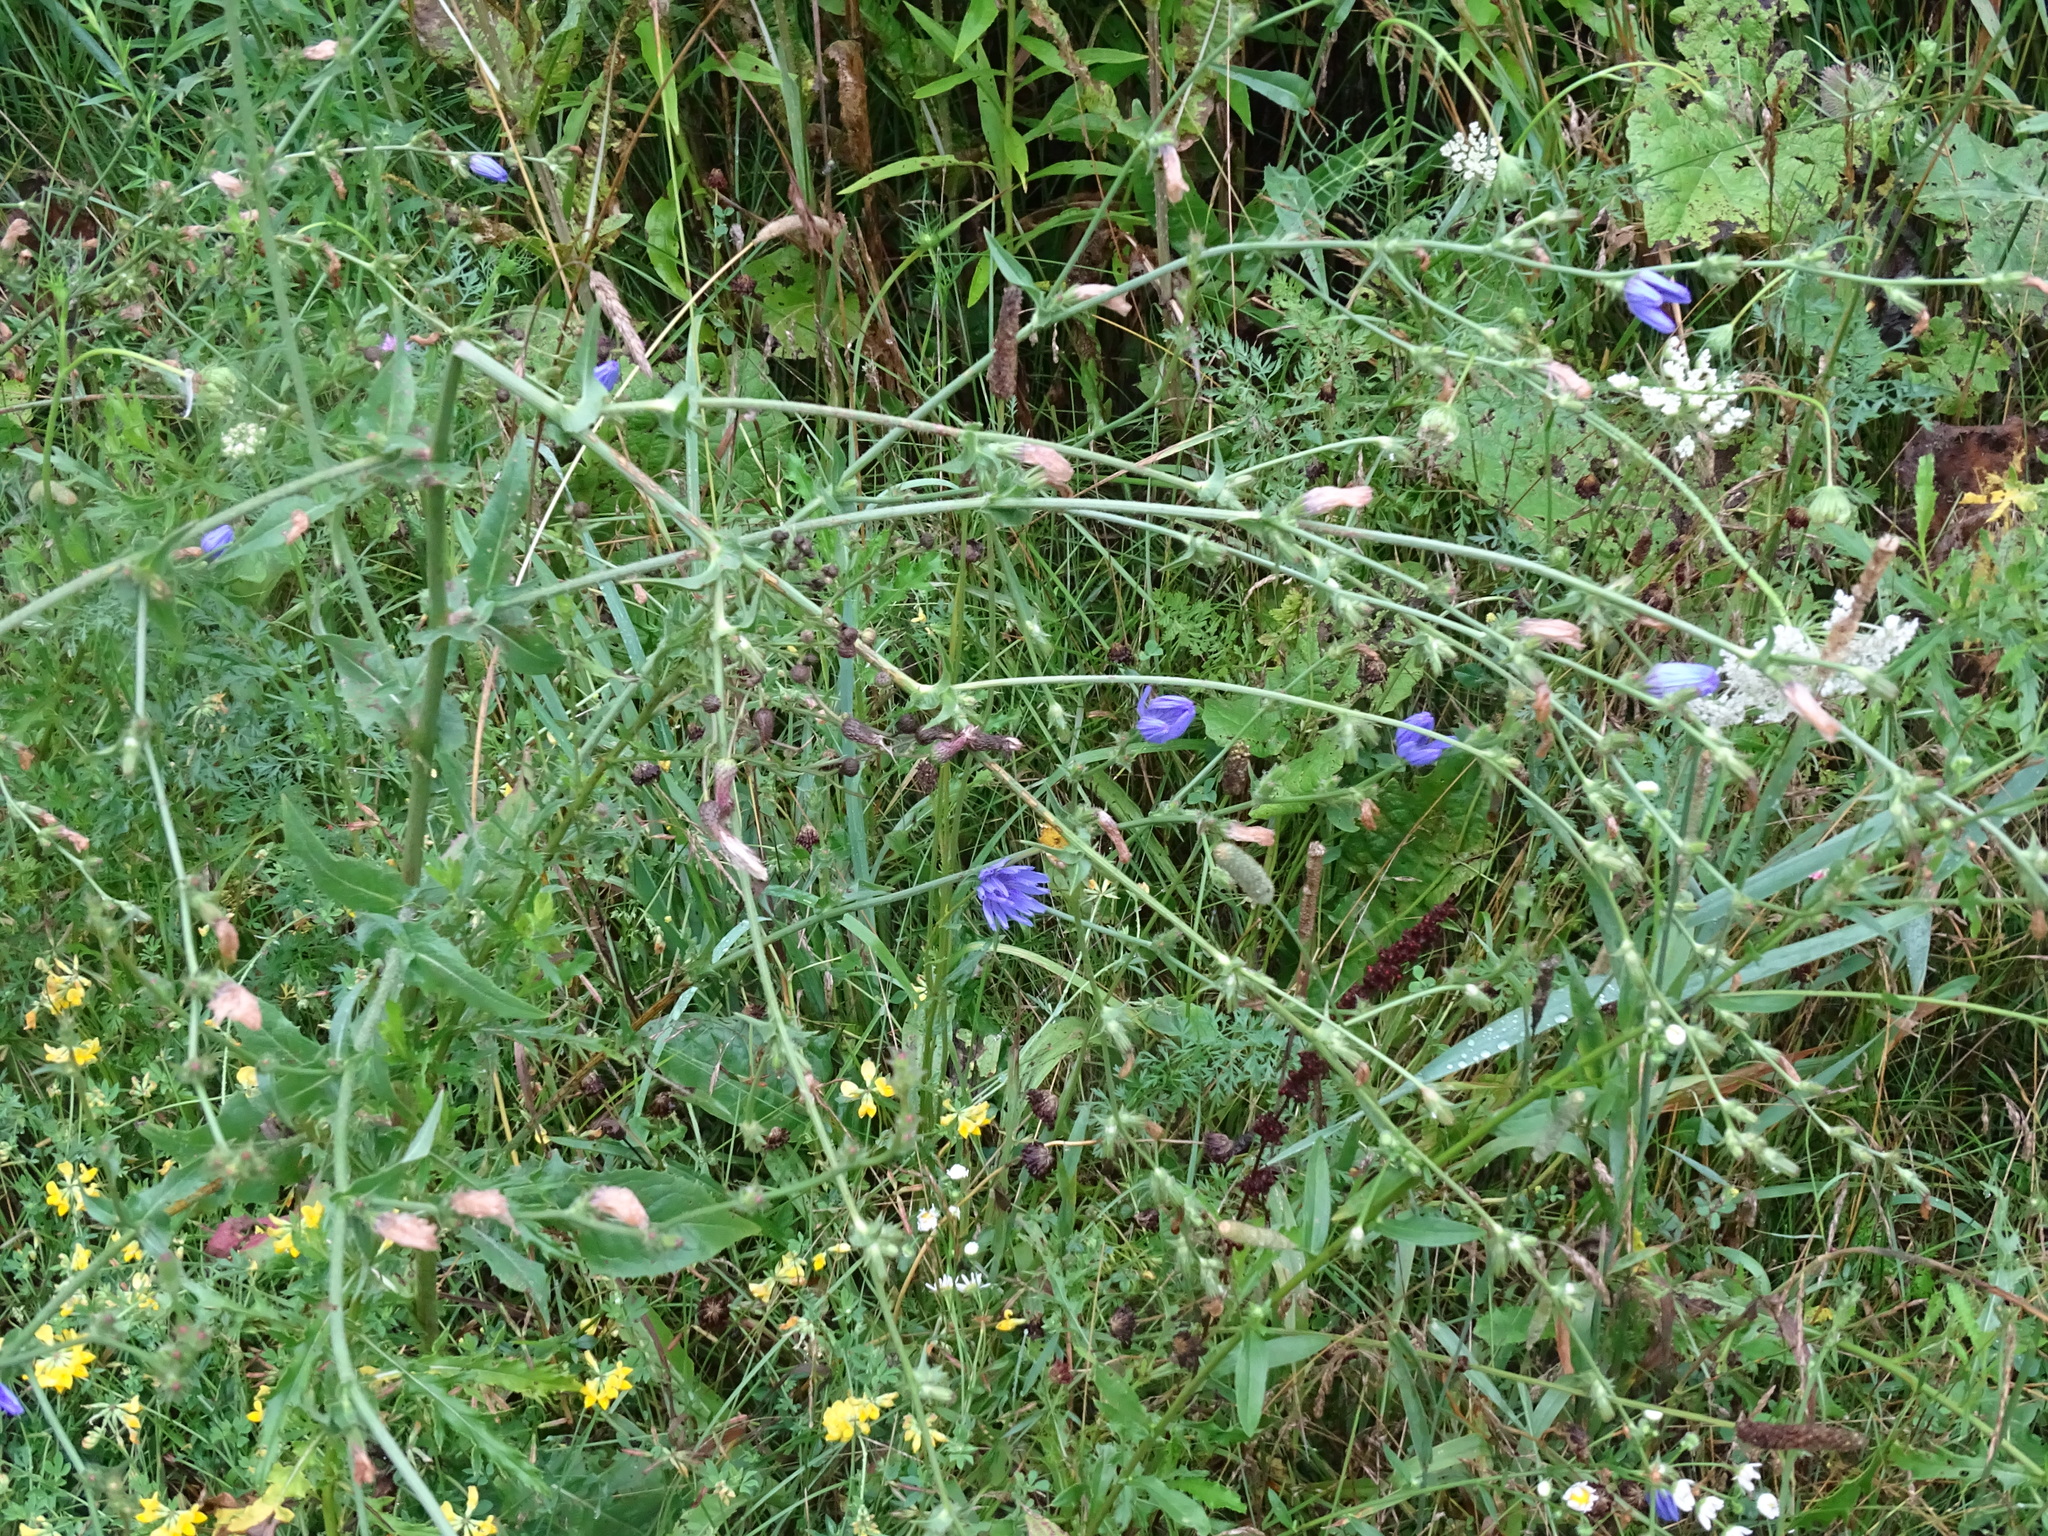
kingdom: Plantae
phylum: Tracheophyta
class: Magnoliopsida
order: Asterales
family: Asteraceae
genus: Cichorium
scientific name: Cichorium intybus
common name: Chicory
